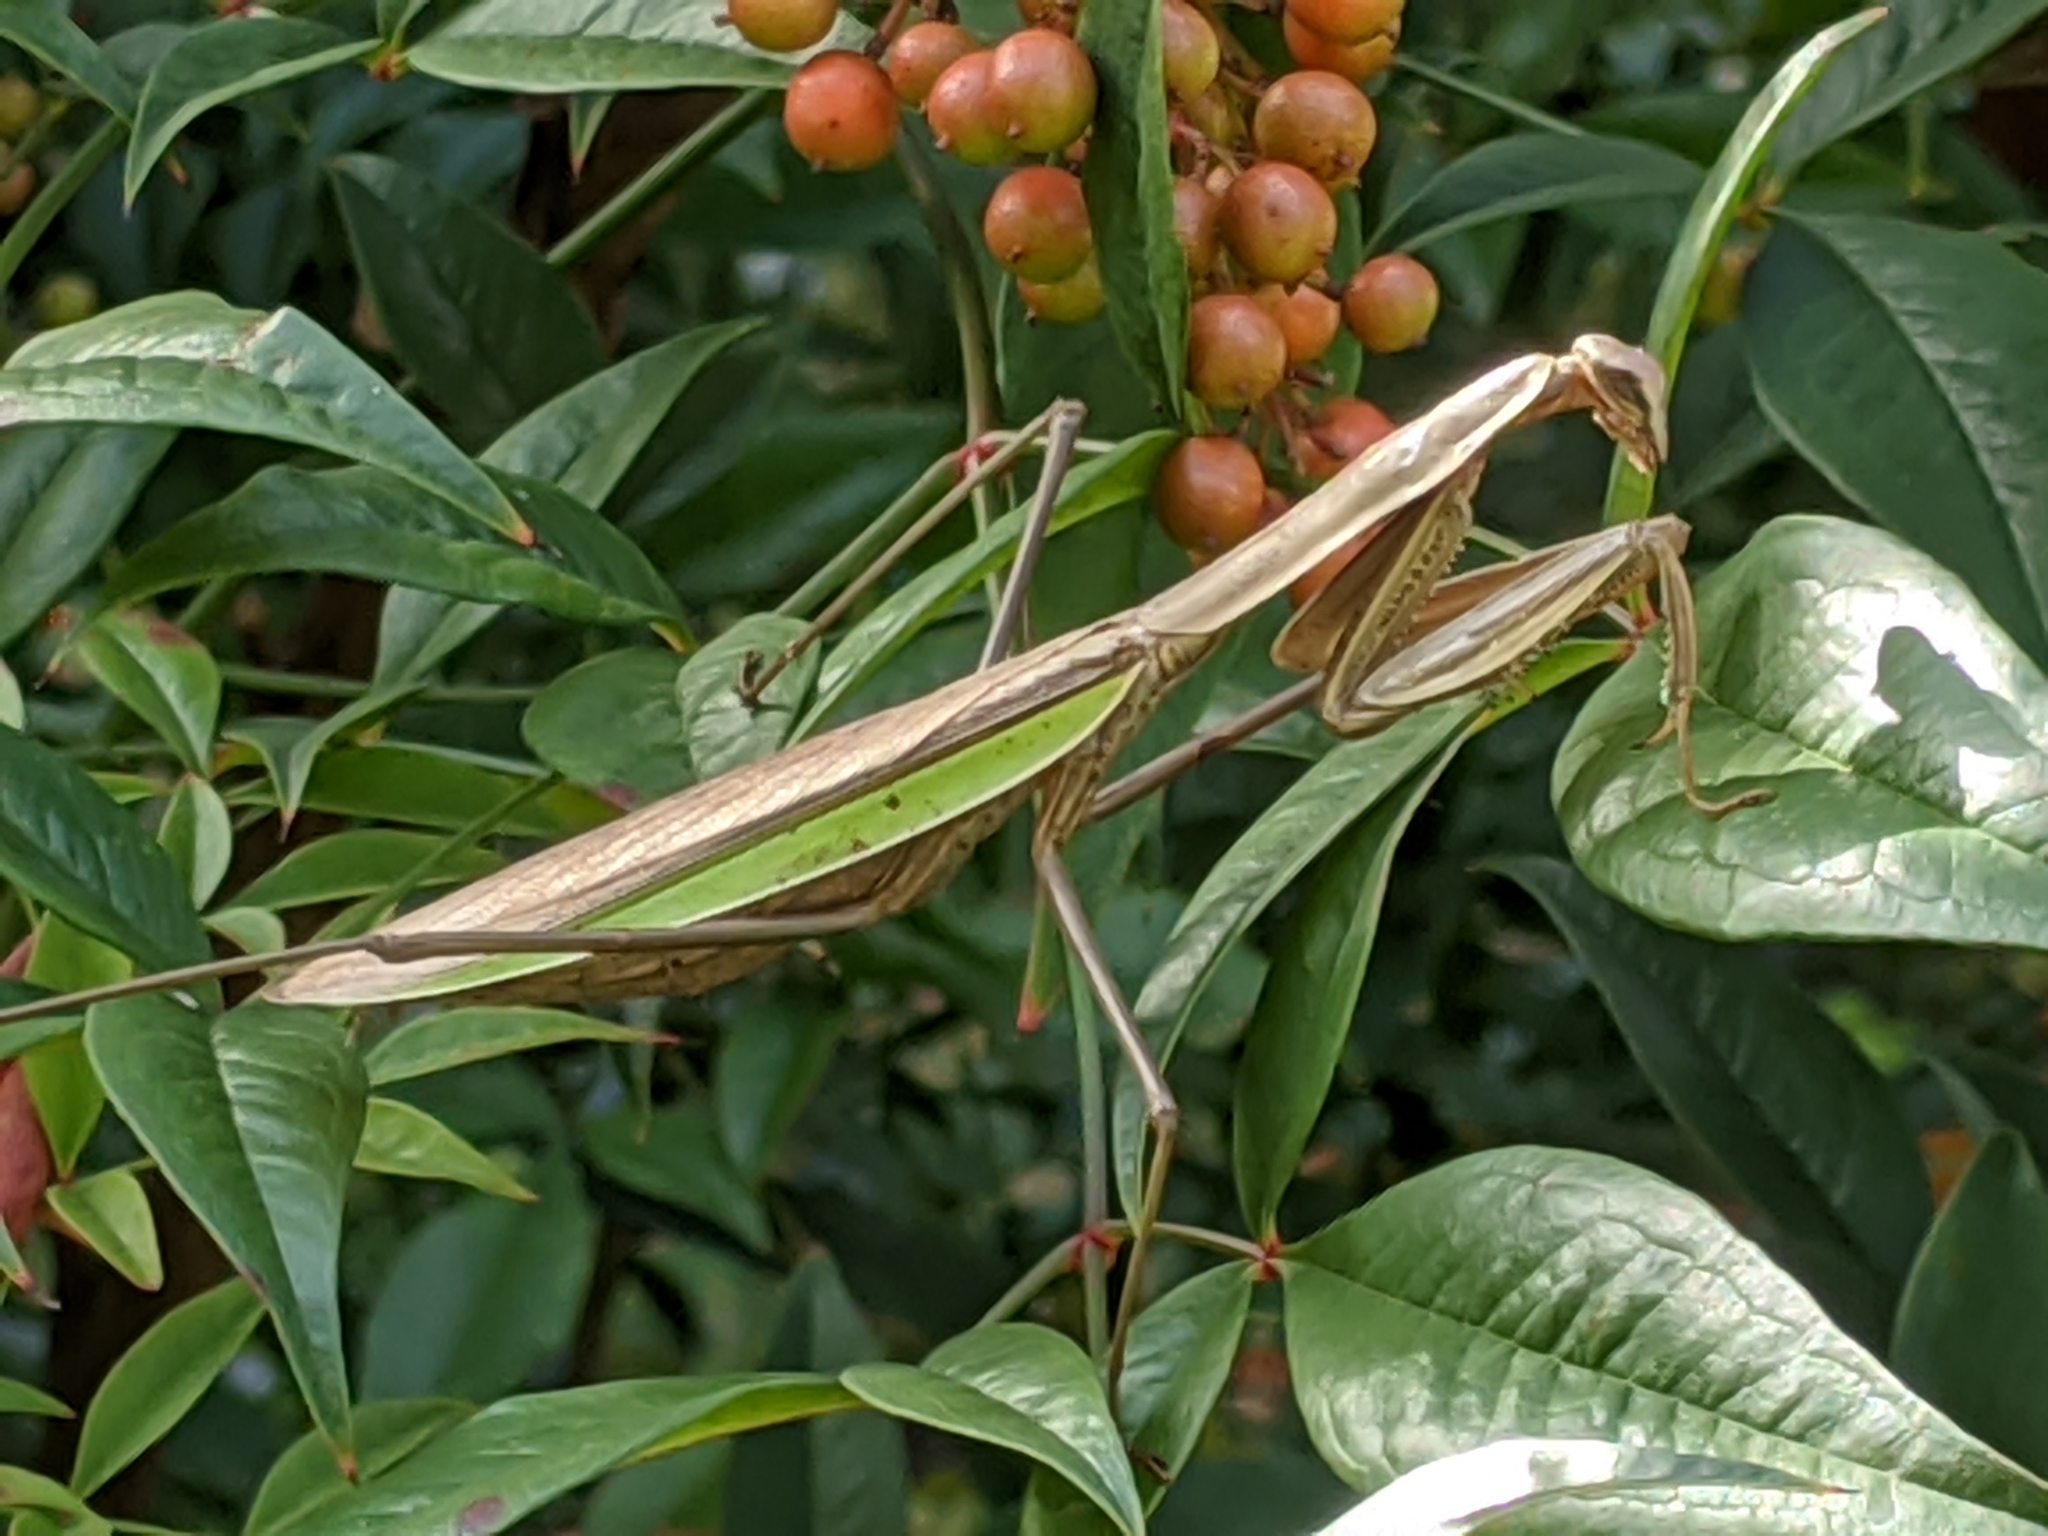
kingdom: Animalia
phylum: Arthropoda
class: Insecta
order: Mantodea
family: Mantidae
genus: Tenodera
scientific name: Tenodera sinensis
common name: Chinese mantis
